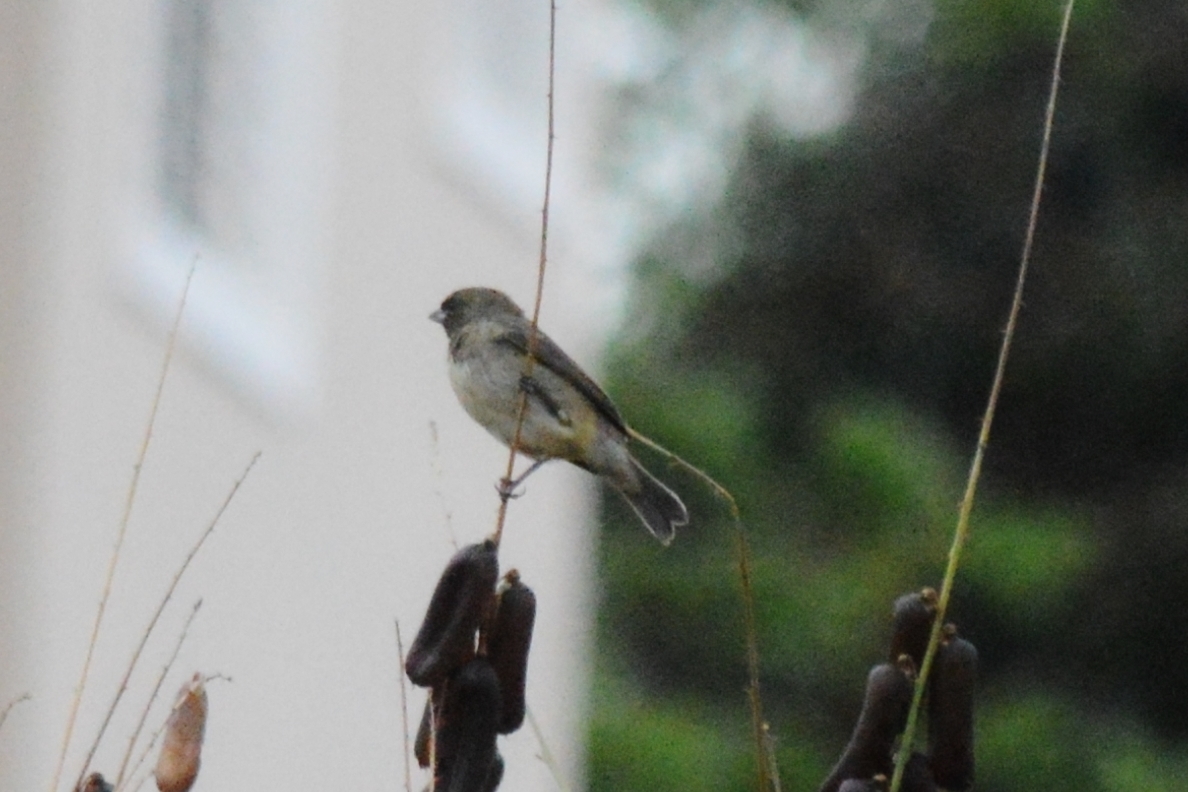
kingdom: Animalia
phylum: Chordata
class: Aves
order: Passeriformes
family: Thraupidae
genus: Sporophila
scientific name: Sporophila nigricollis
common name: Yellow-bellied seedeater
